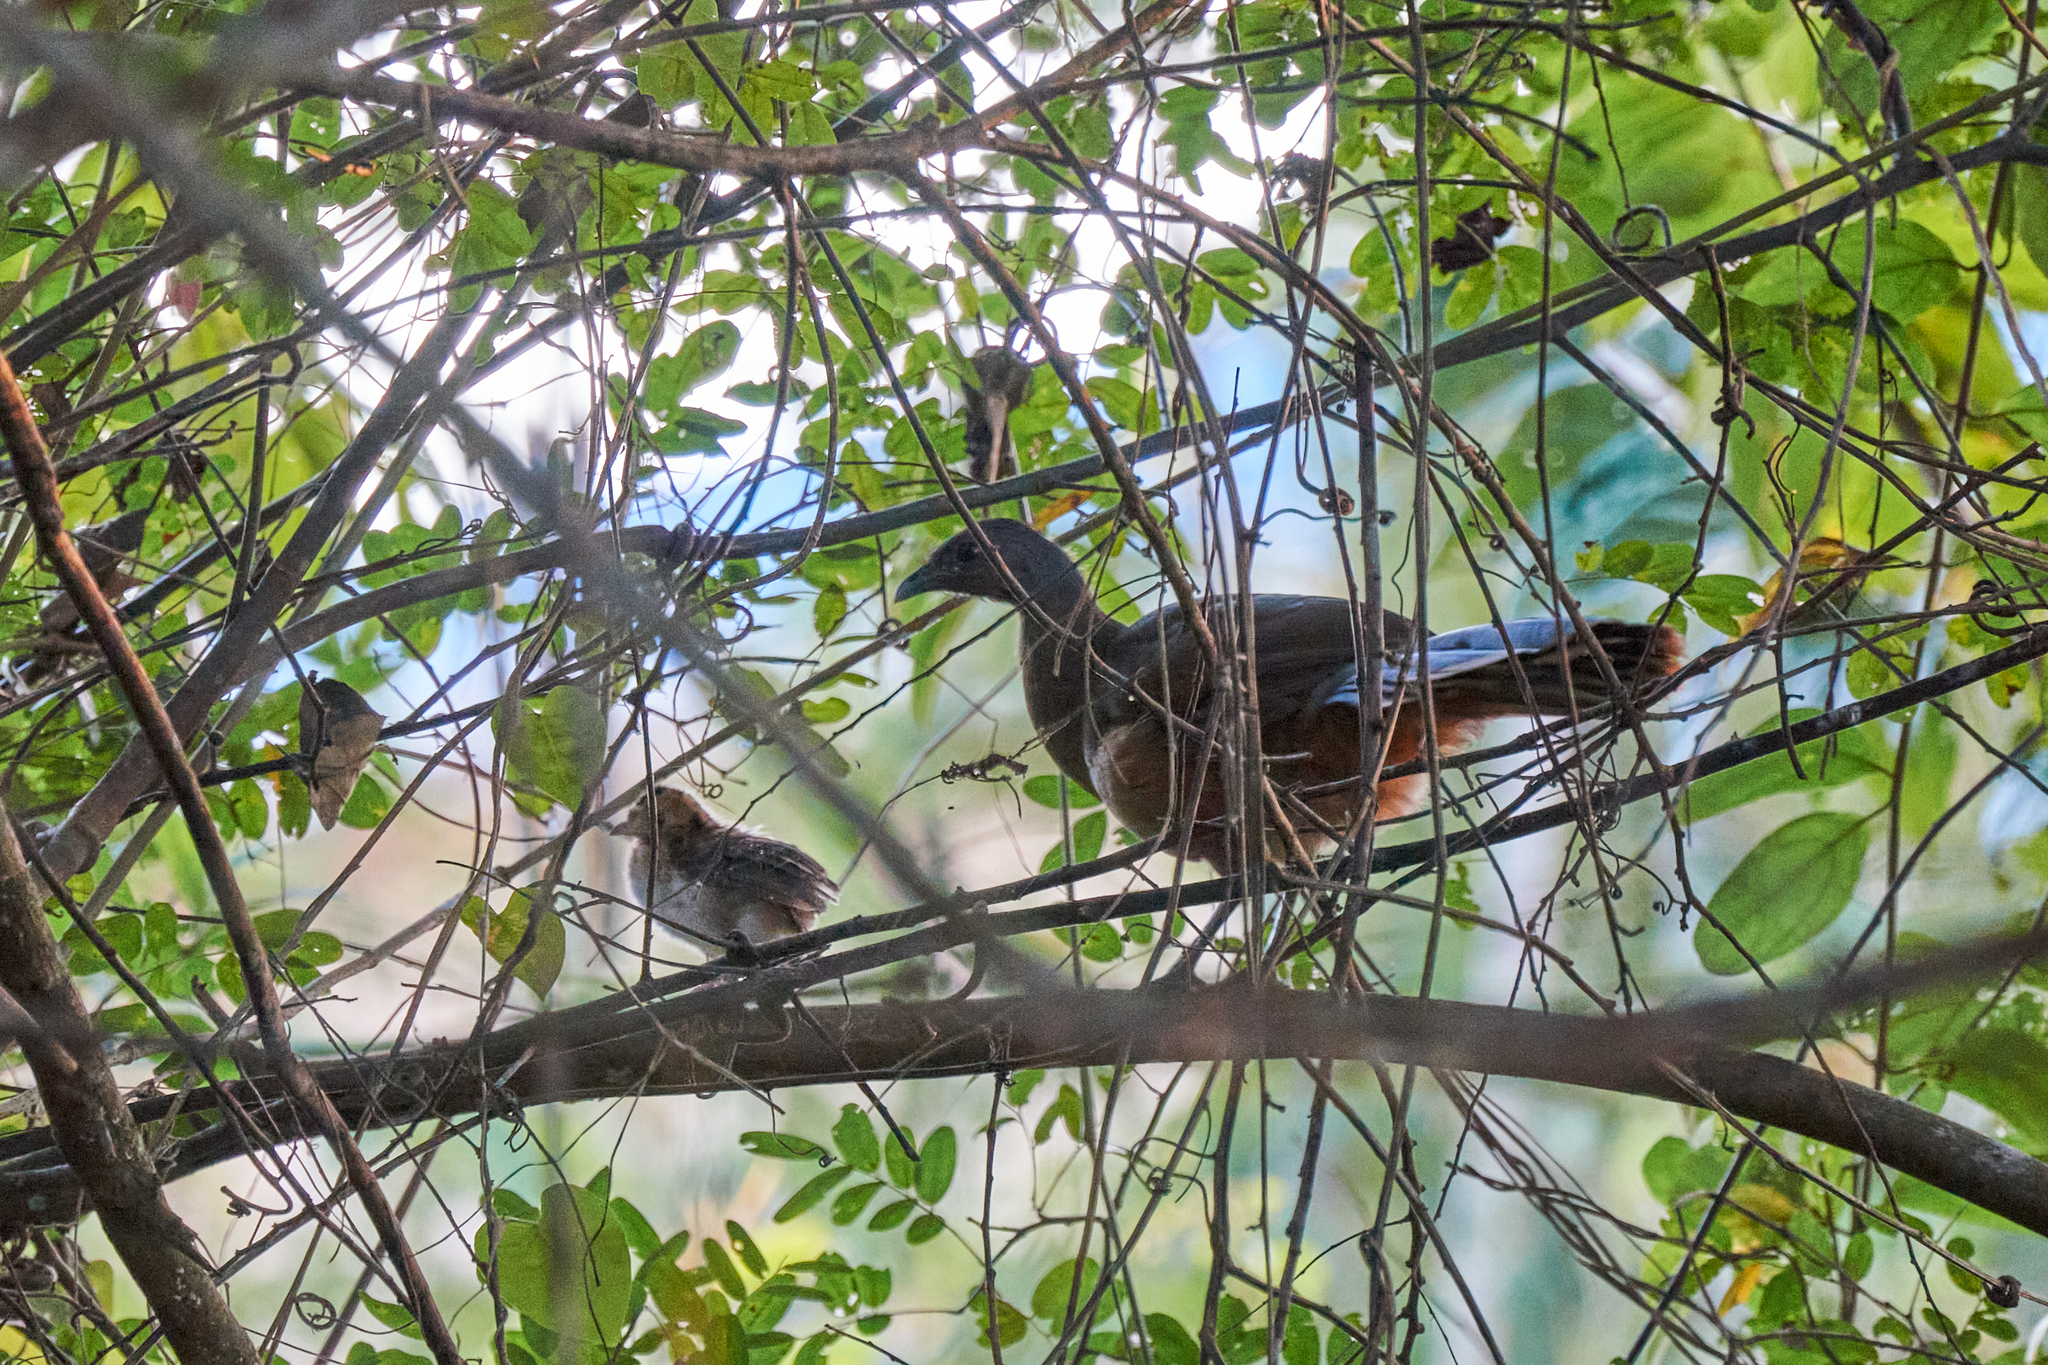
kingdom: Animalia
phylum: Chordata
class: Aves
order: Galliformes
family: Cracidae
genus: Ortalis
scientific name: Ortalis vetula
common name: Plain chachalaca
